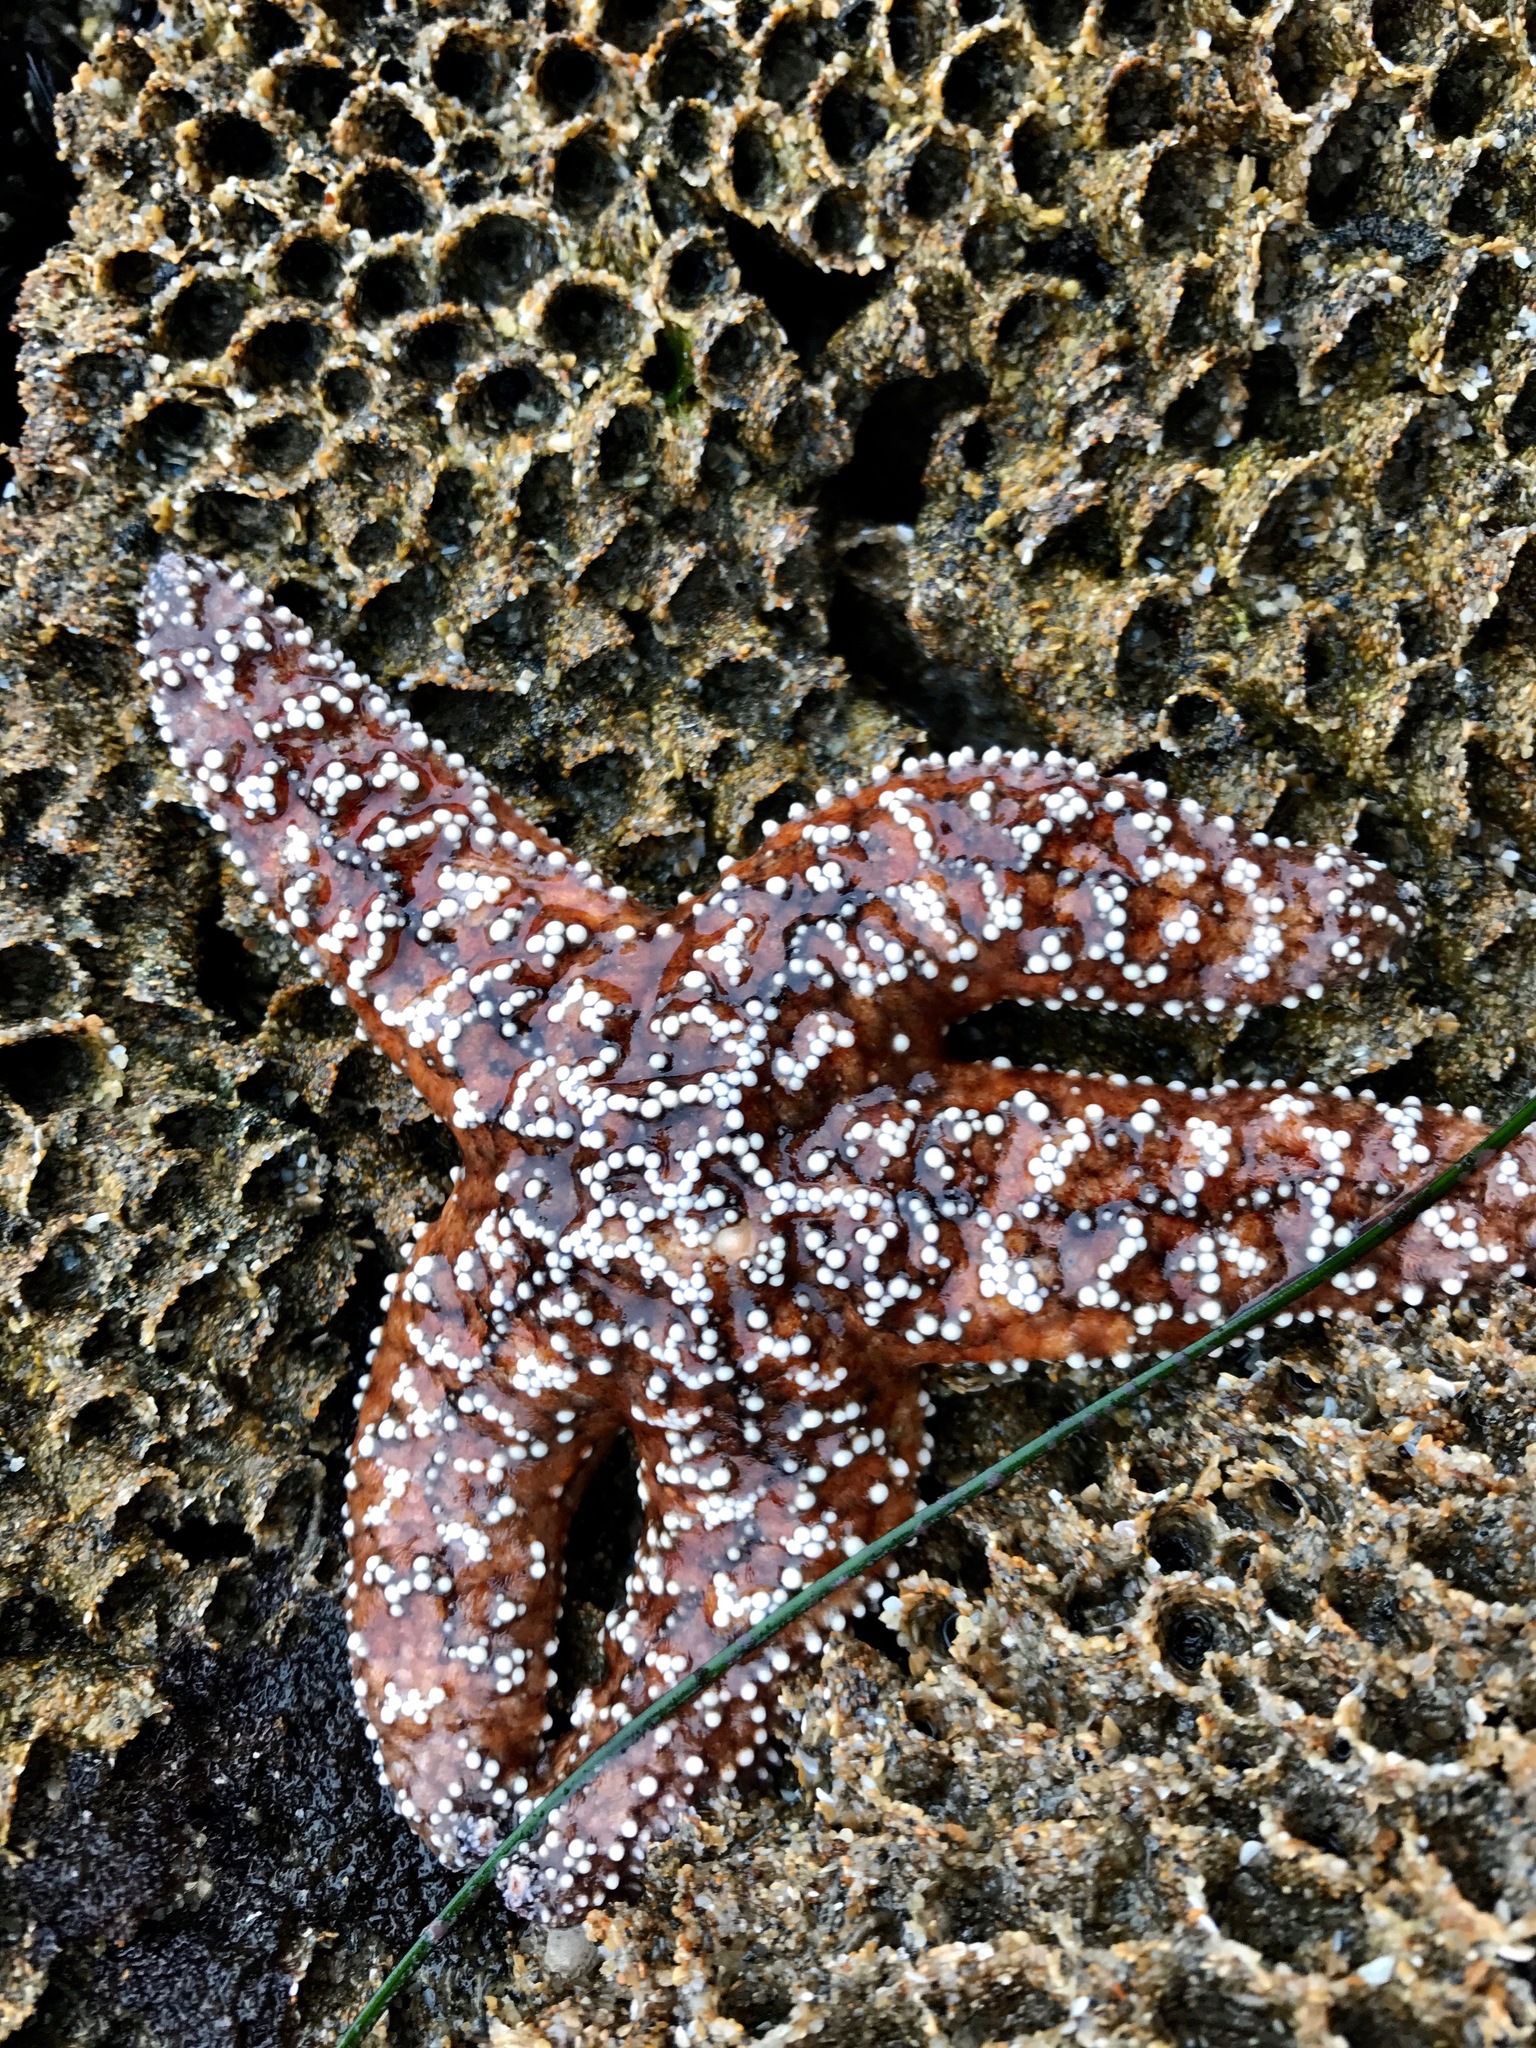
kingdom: Animalia
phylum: Echinodermata
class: Asteroidea
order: Forcipulatida
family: Asteriidae
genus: Pisaster
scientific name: Pisaster ochraceus
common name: Ochre stars
